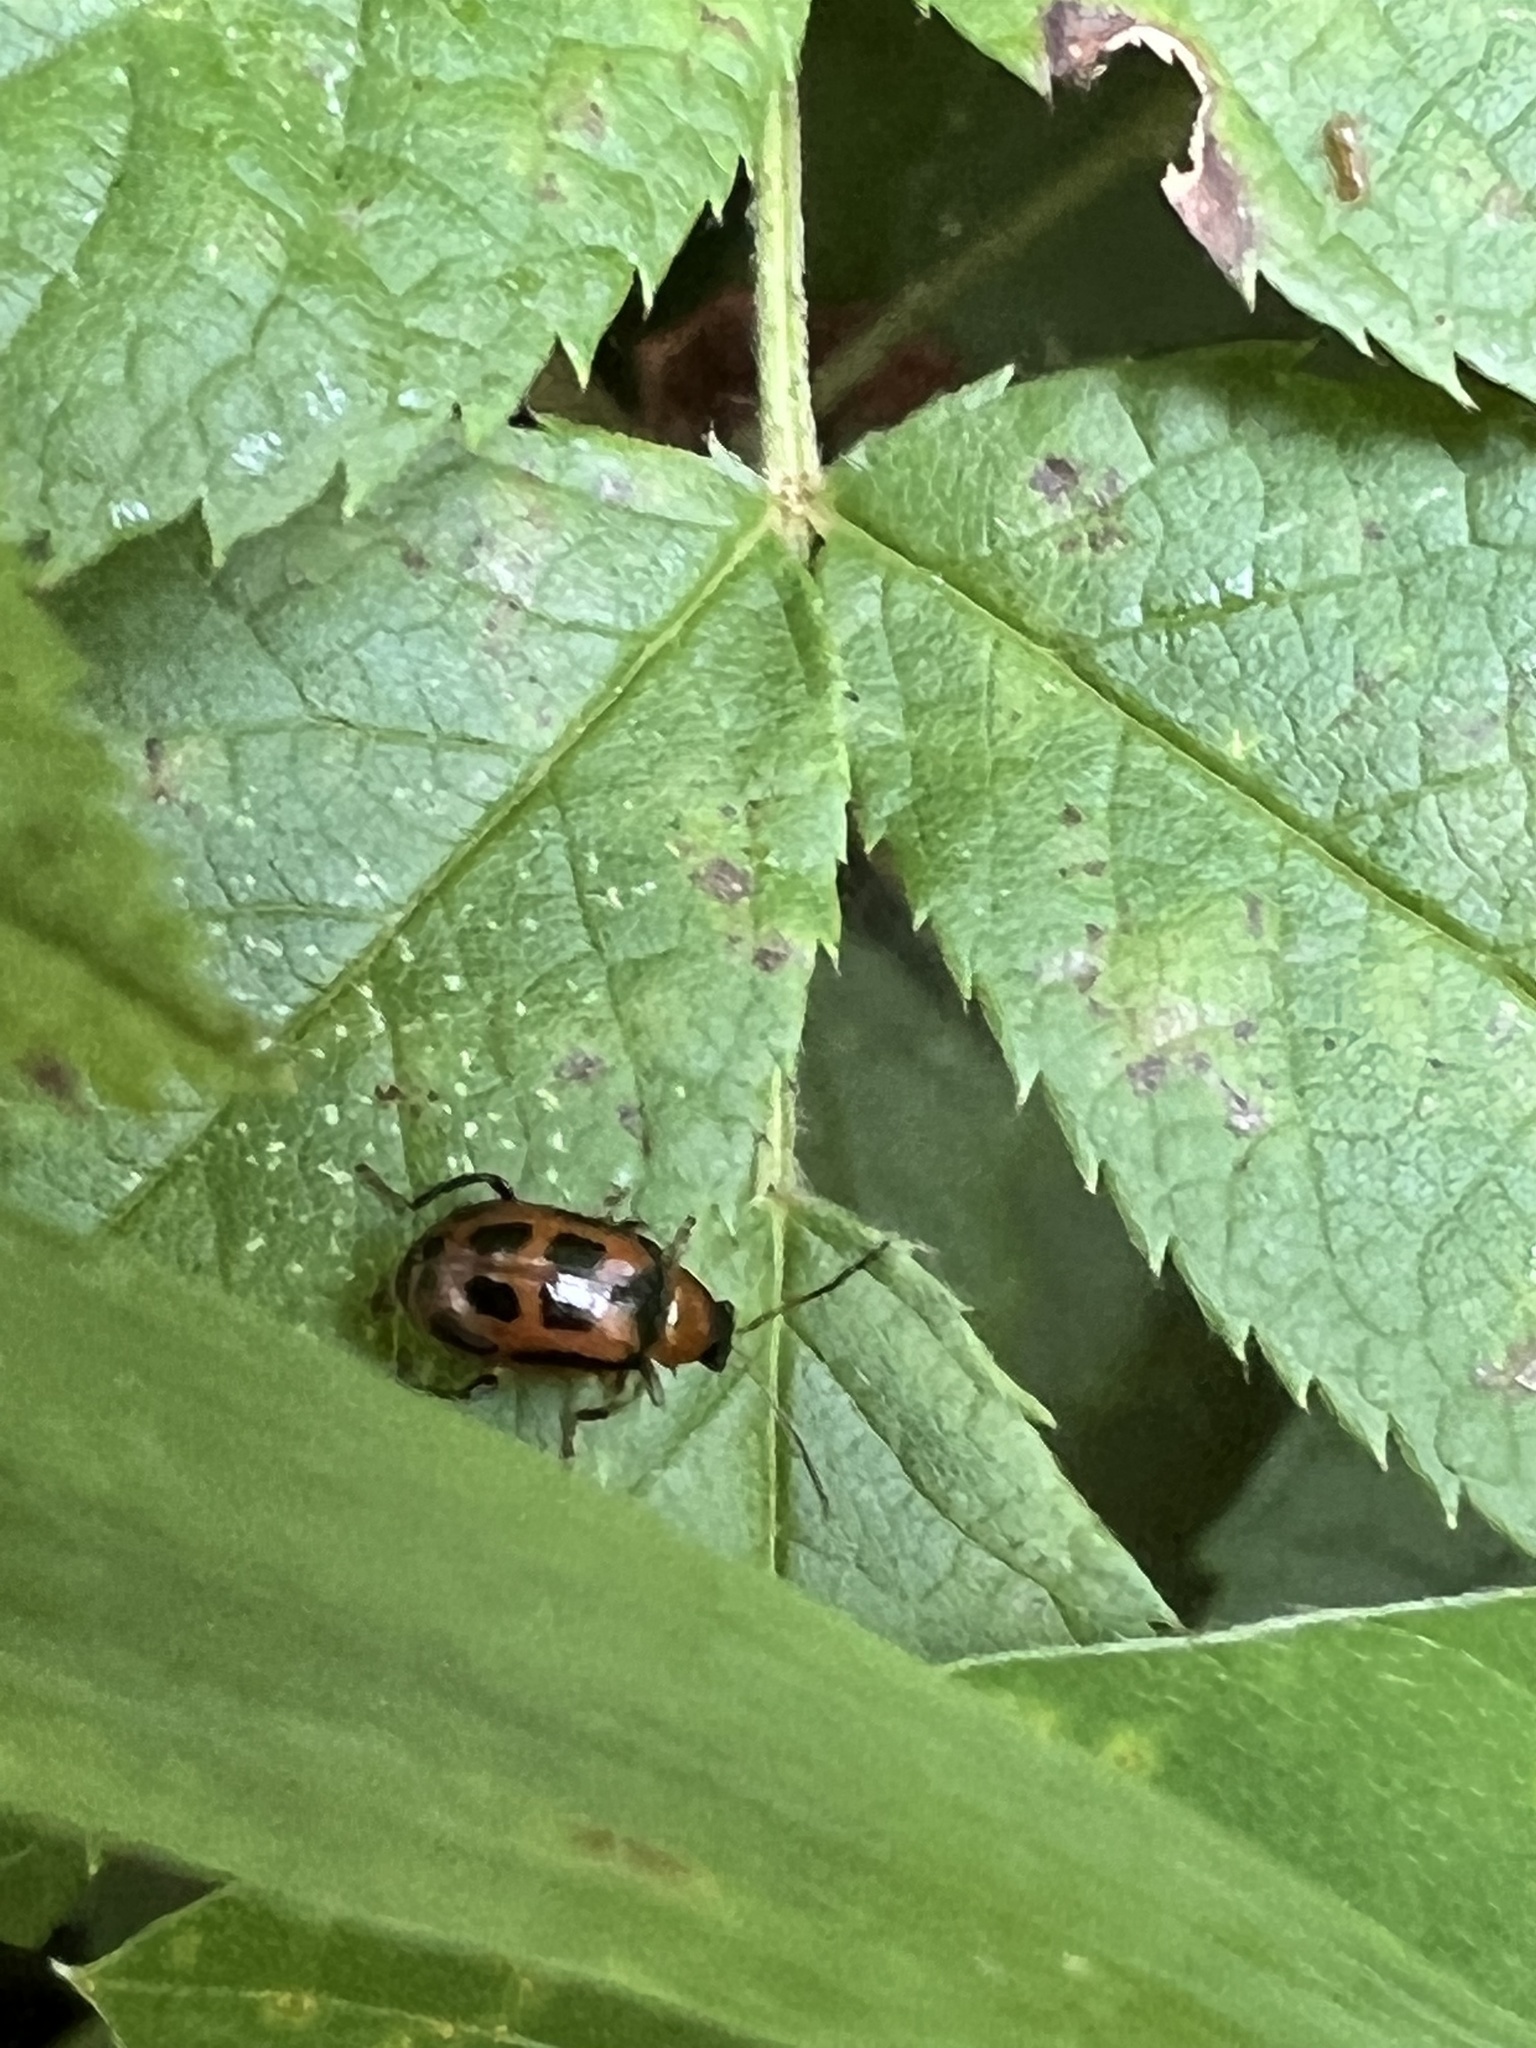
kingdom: Animalia
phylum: Arthropoda
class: Insecta
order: Coleoptera
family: Chrysomelidae
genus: Cerotoma
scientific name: Cerotoma trifurcata
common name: Bean leaf beetle
